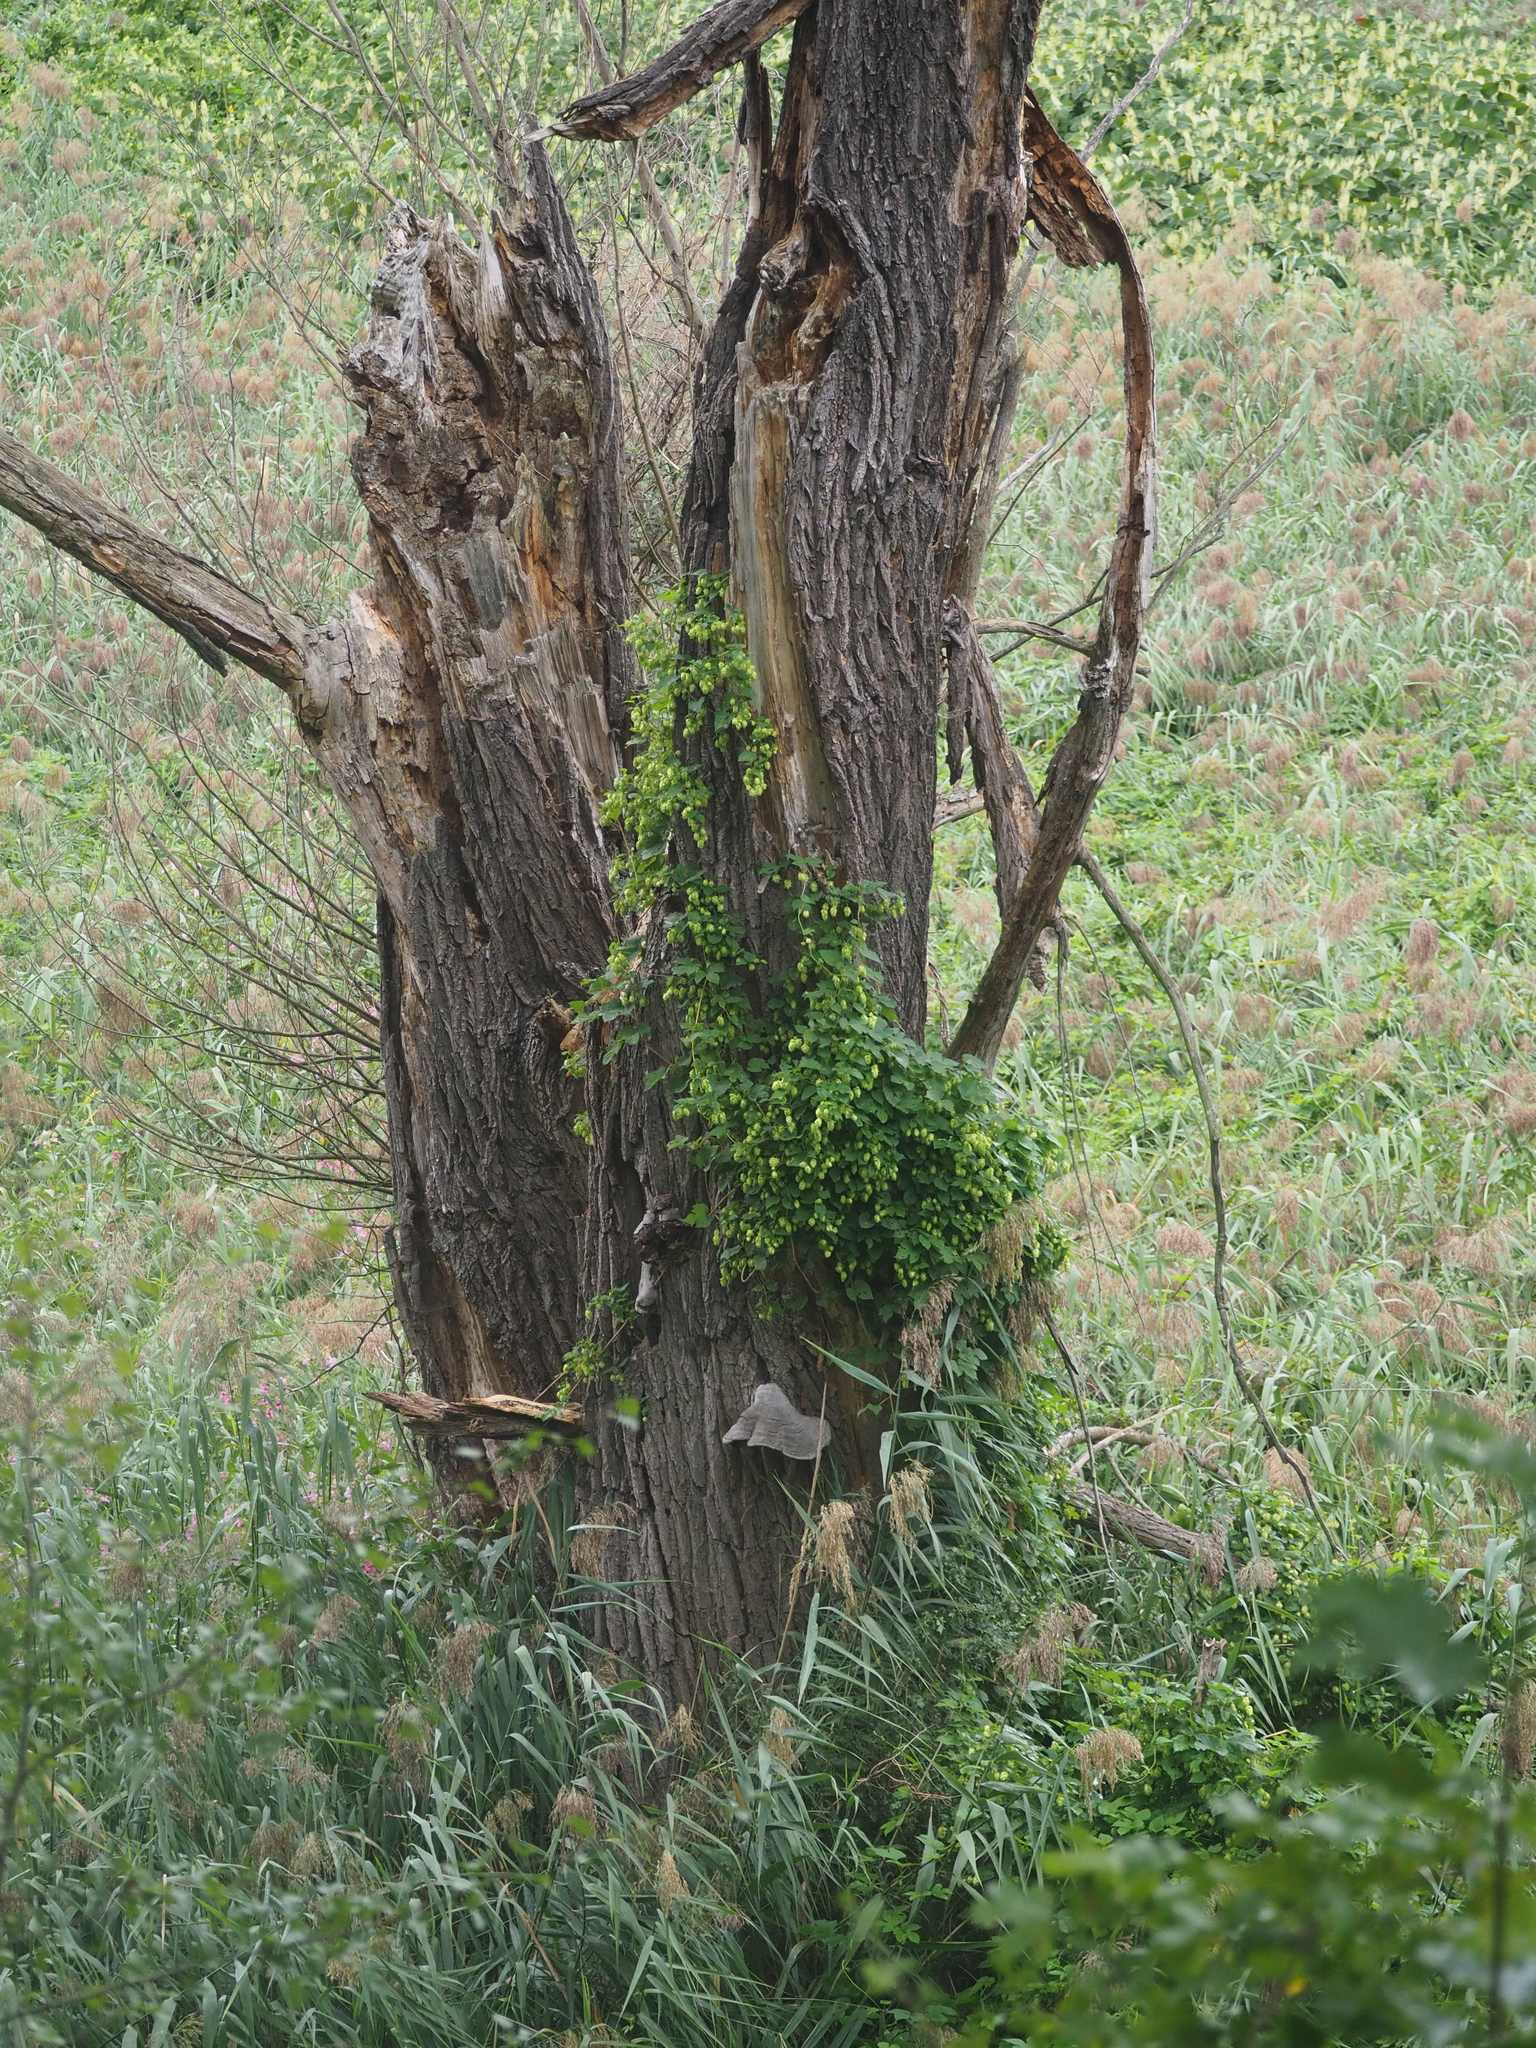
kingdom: Plantae
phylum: Tracheophyta
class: Magnoliopsida
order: Rosales
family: Cannabaceae
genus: Humulus
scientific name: Humulus lupulus
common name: Hop
